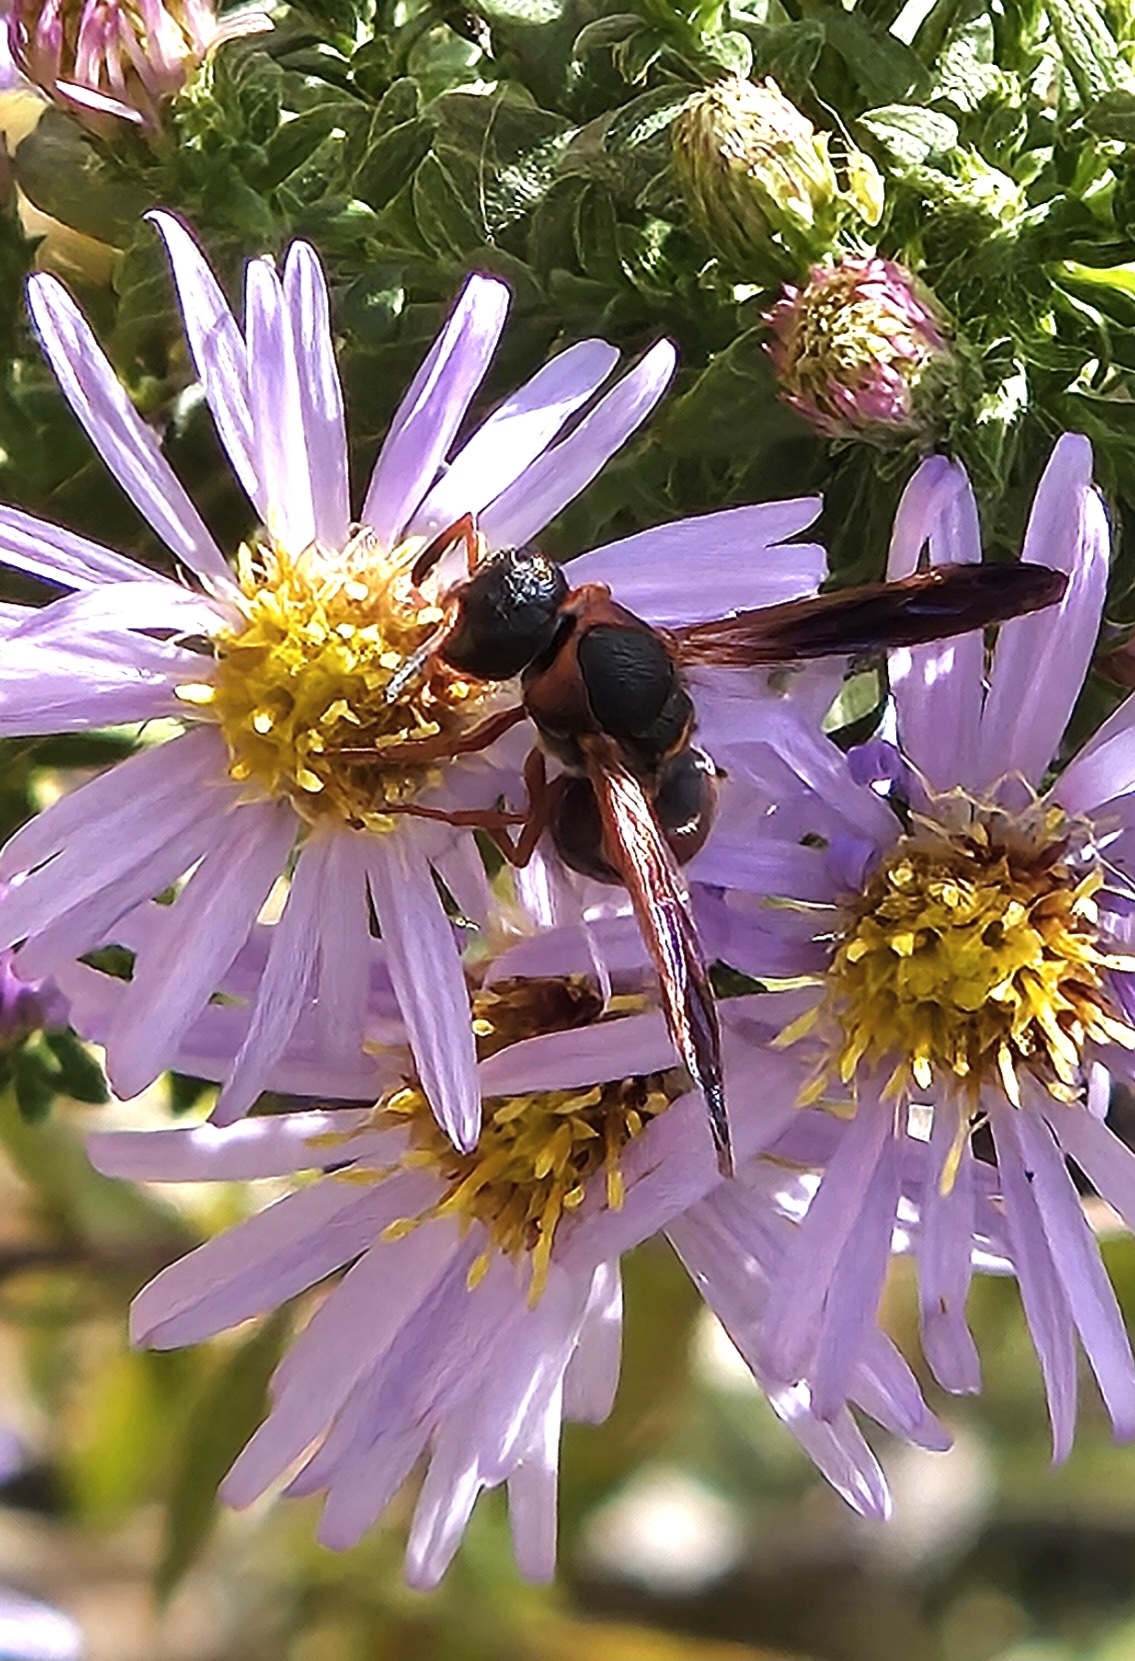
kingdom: Animalia
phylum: Arthropoda
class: Insecta
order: Hymenoptera
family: Eumenidae
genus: Pachodynerus
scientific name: Pachodynerus erynnis
